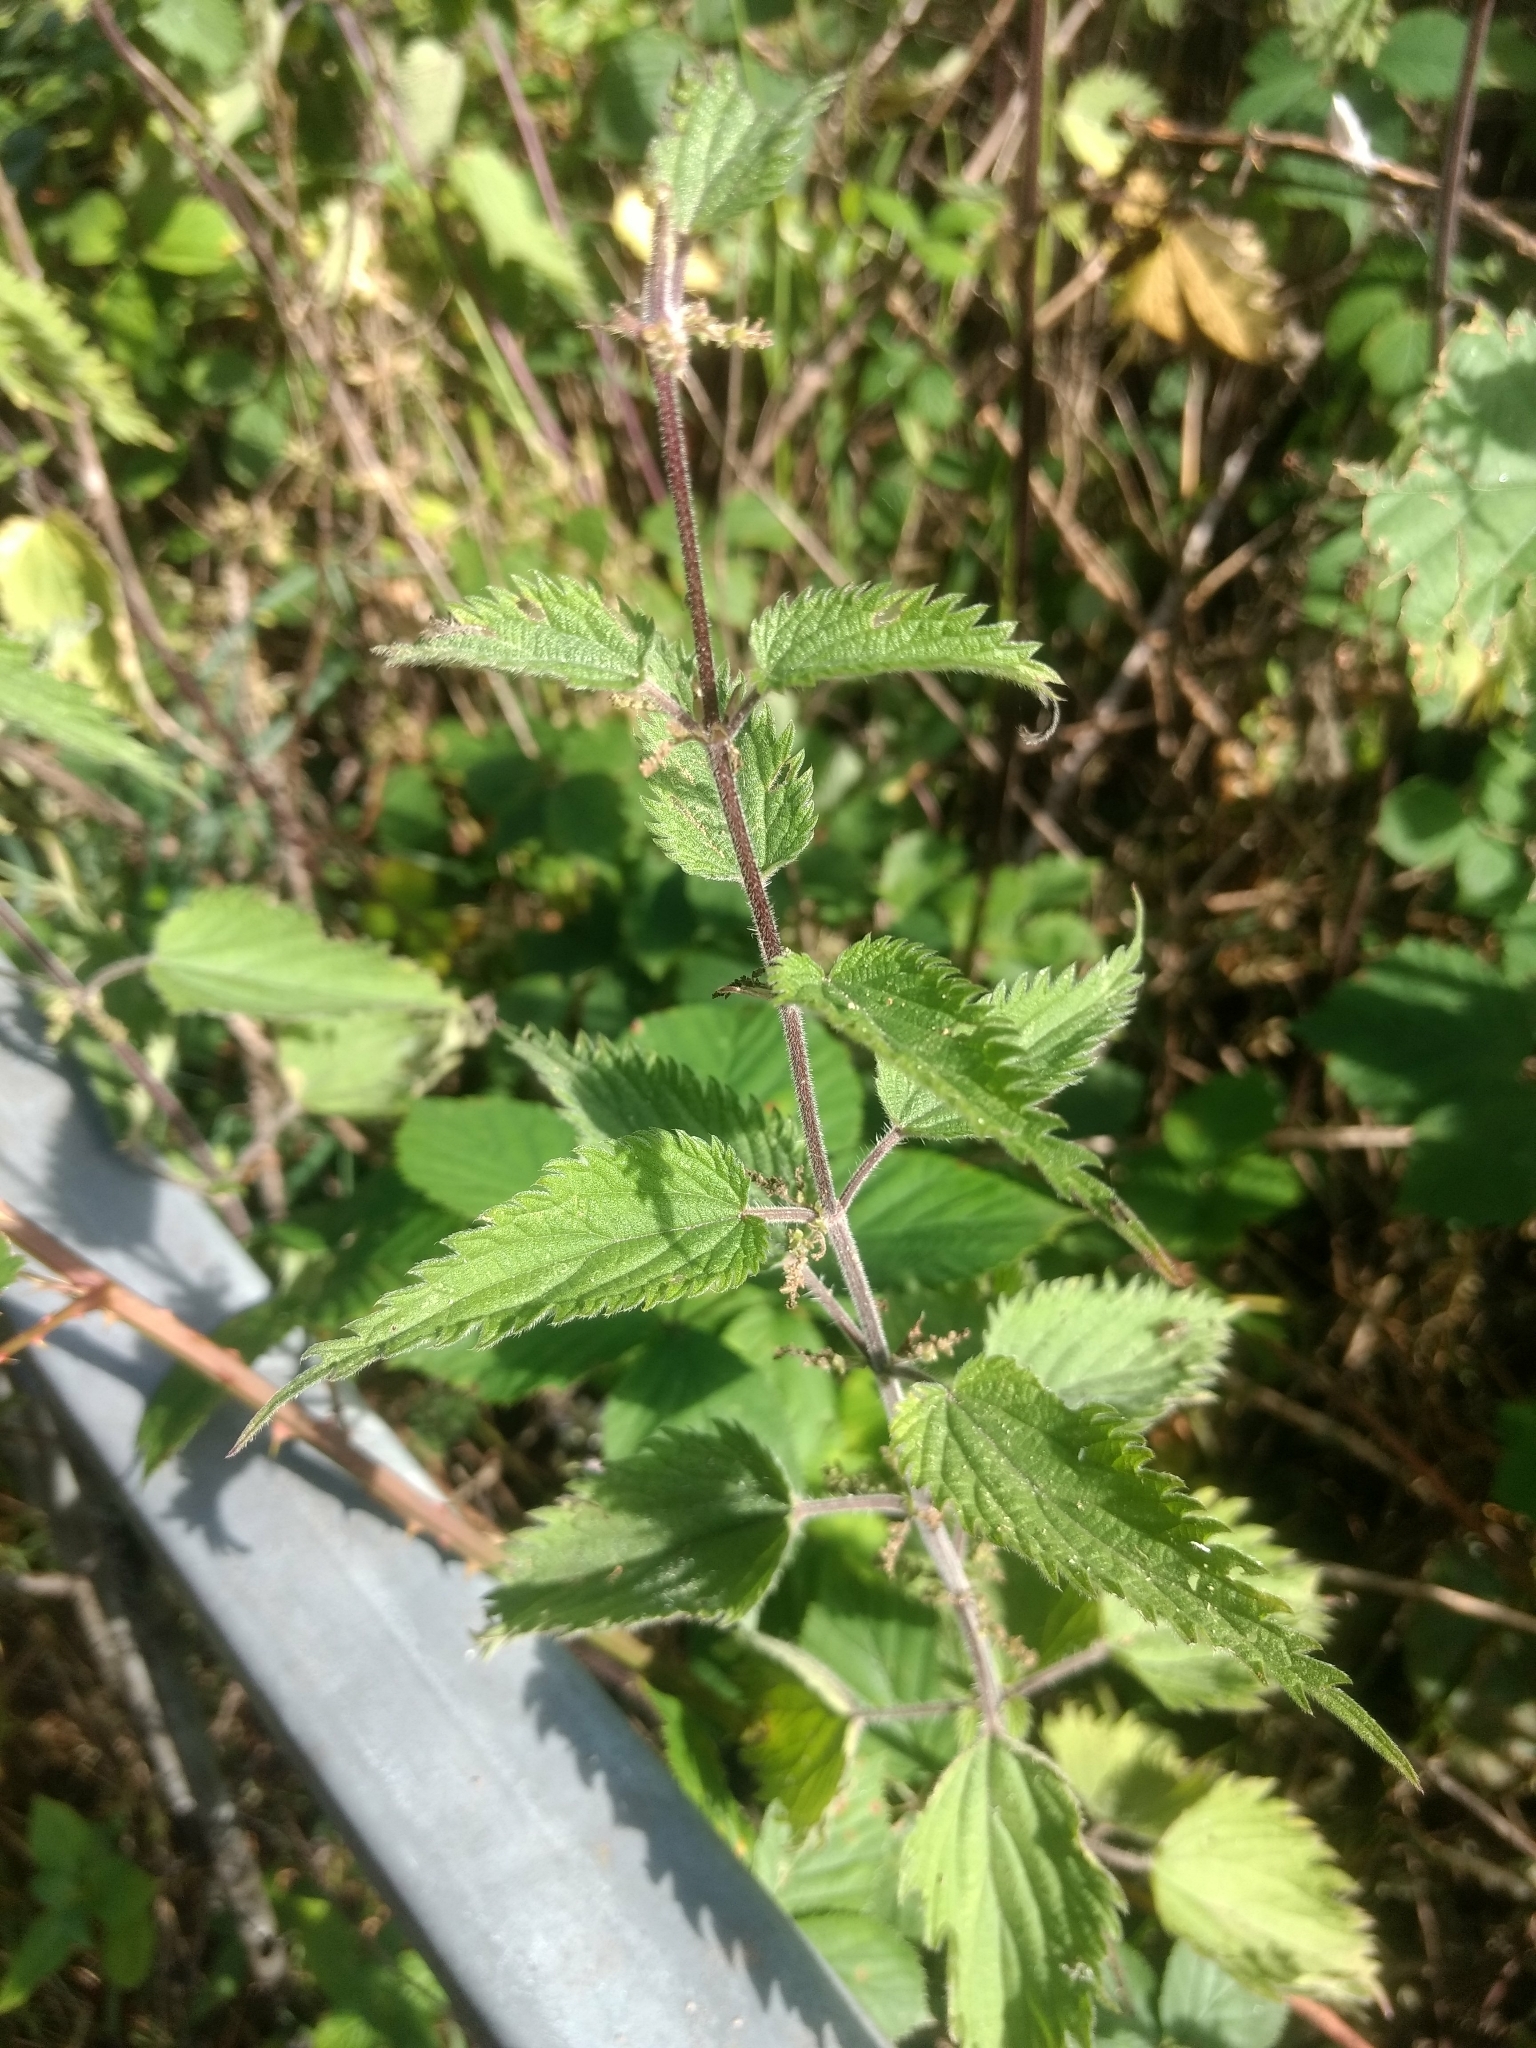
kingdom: Plantae
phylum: Tracheophyta
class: Magnoliopsida
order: Rosales
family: Urticaceae
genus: Urtica
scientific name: Urtica dioica
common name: Common nettle
